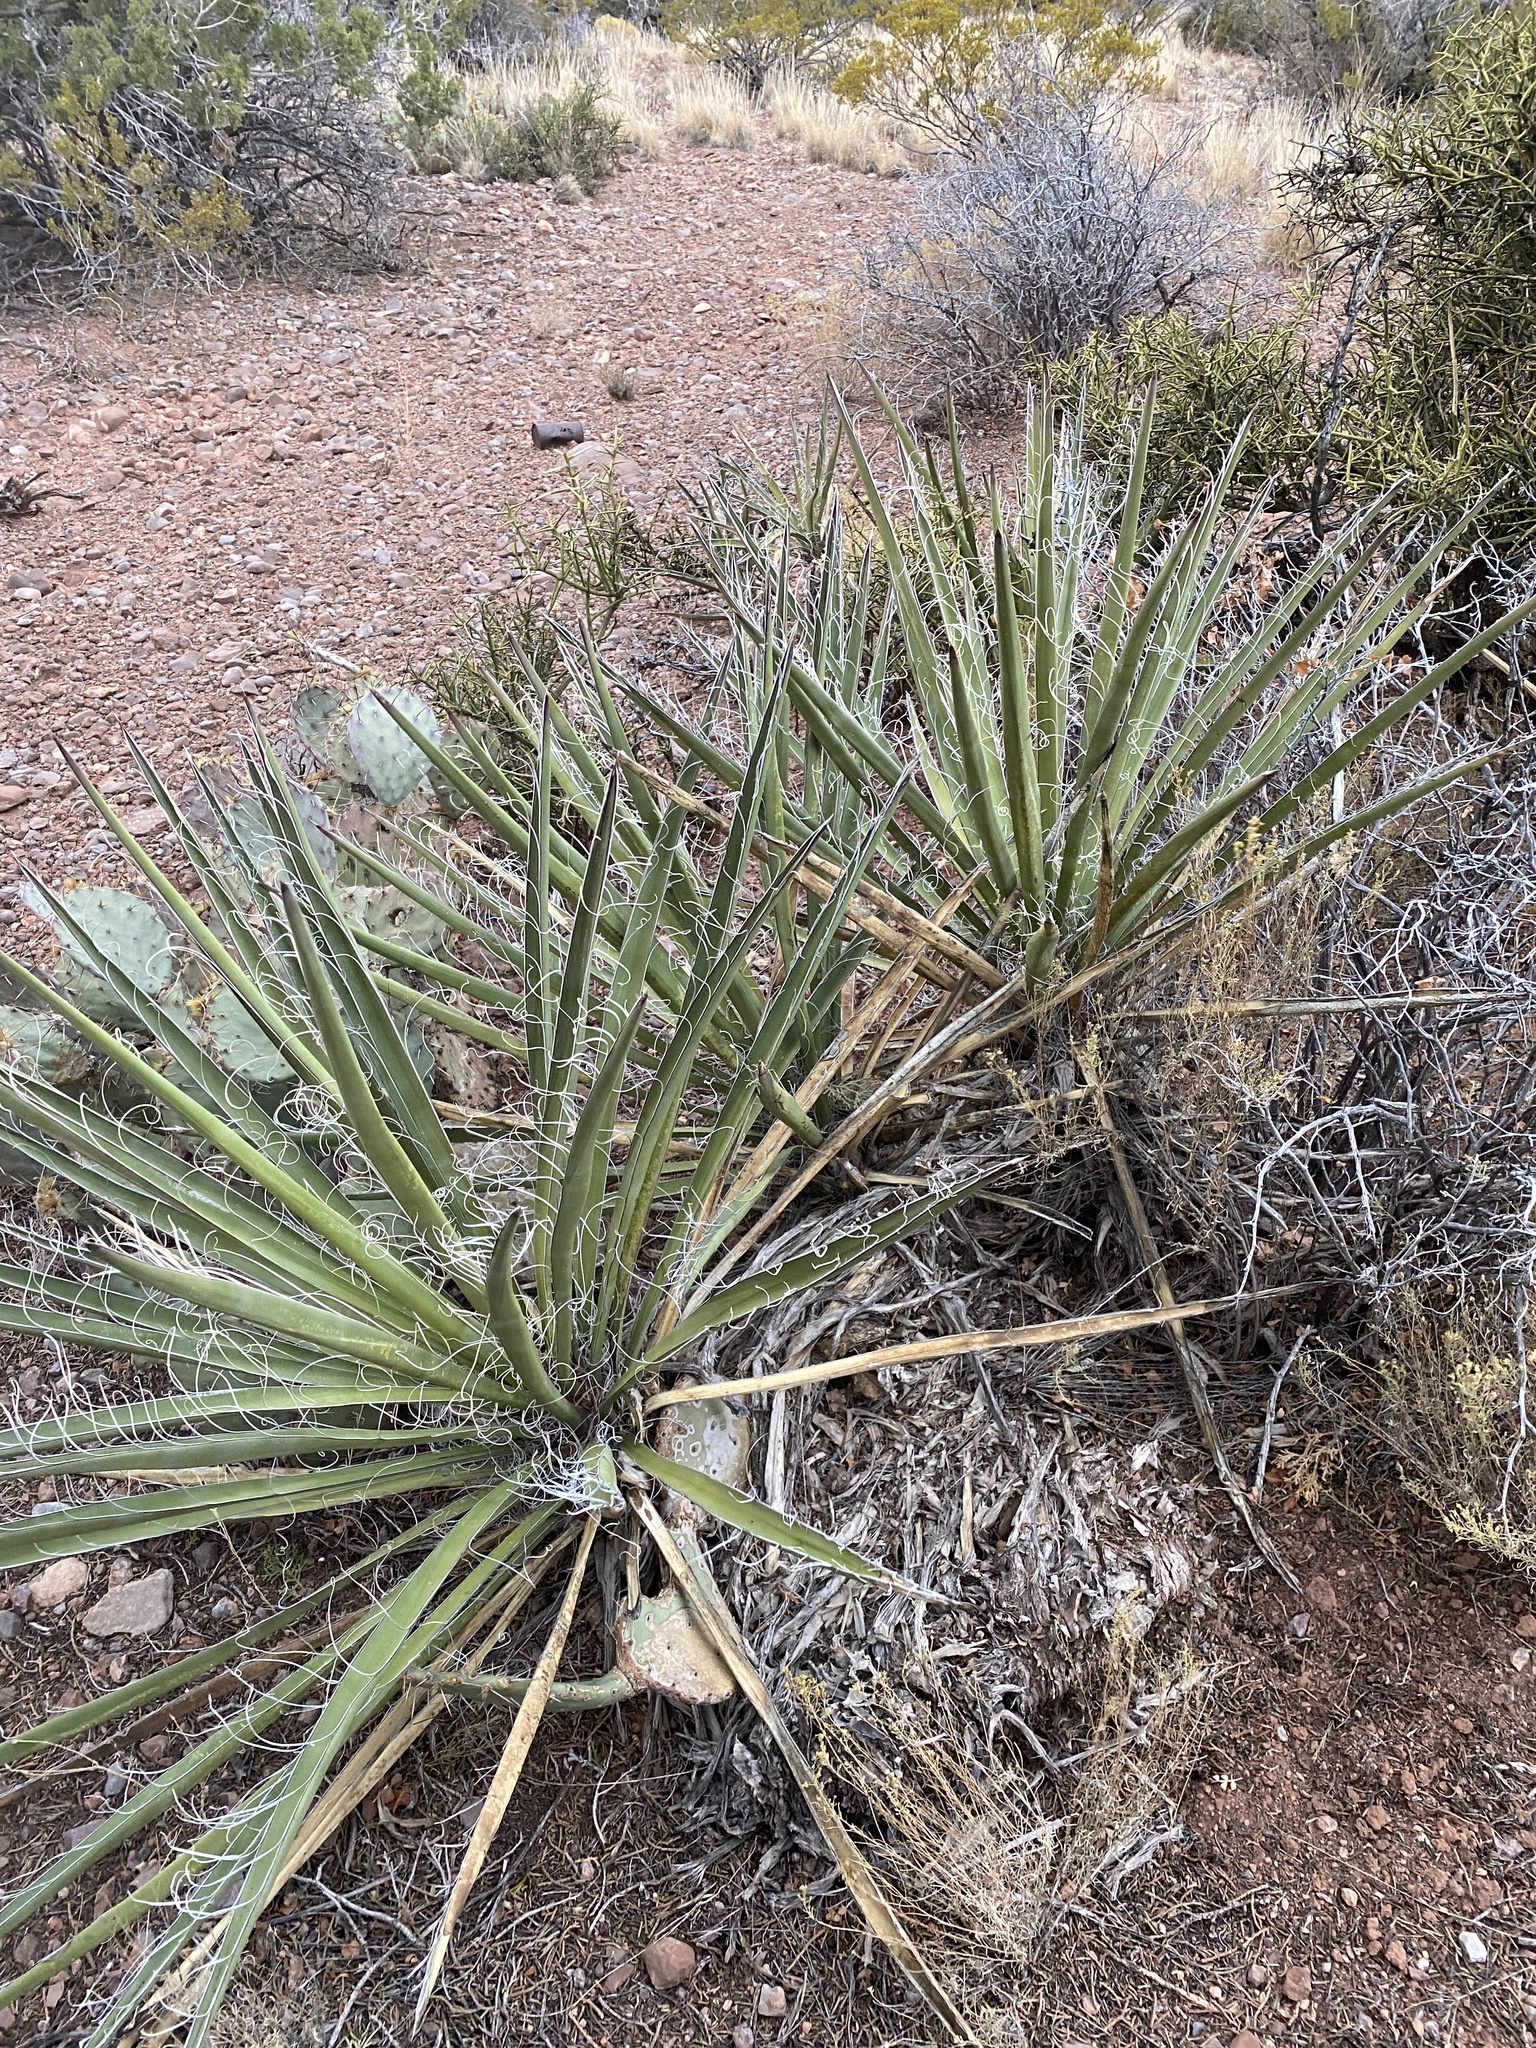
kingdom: Plantae
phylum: Tracheophyta
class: Liliopsida
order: Asparagales
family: Asparagaceae
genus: Yucca
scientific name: Yucca baccata
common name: Banana yucca
